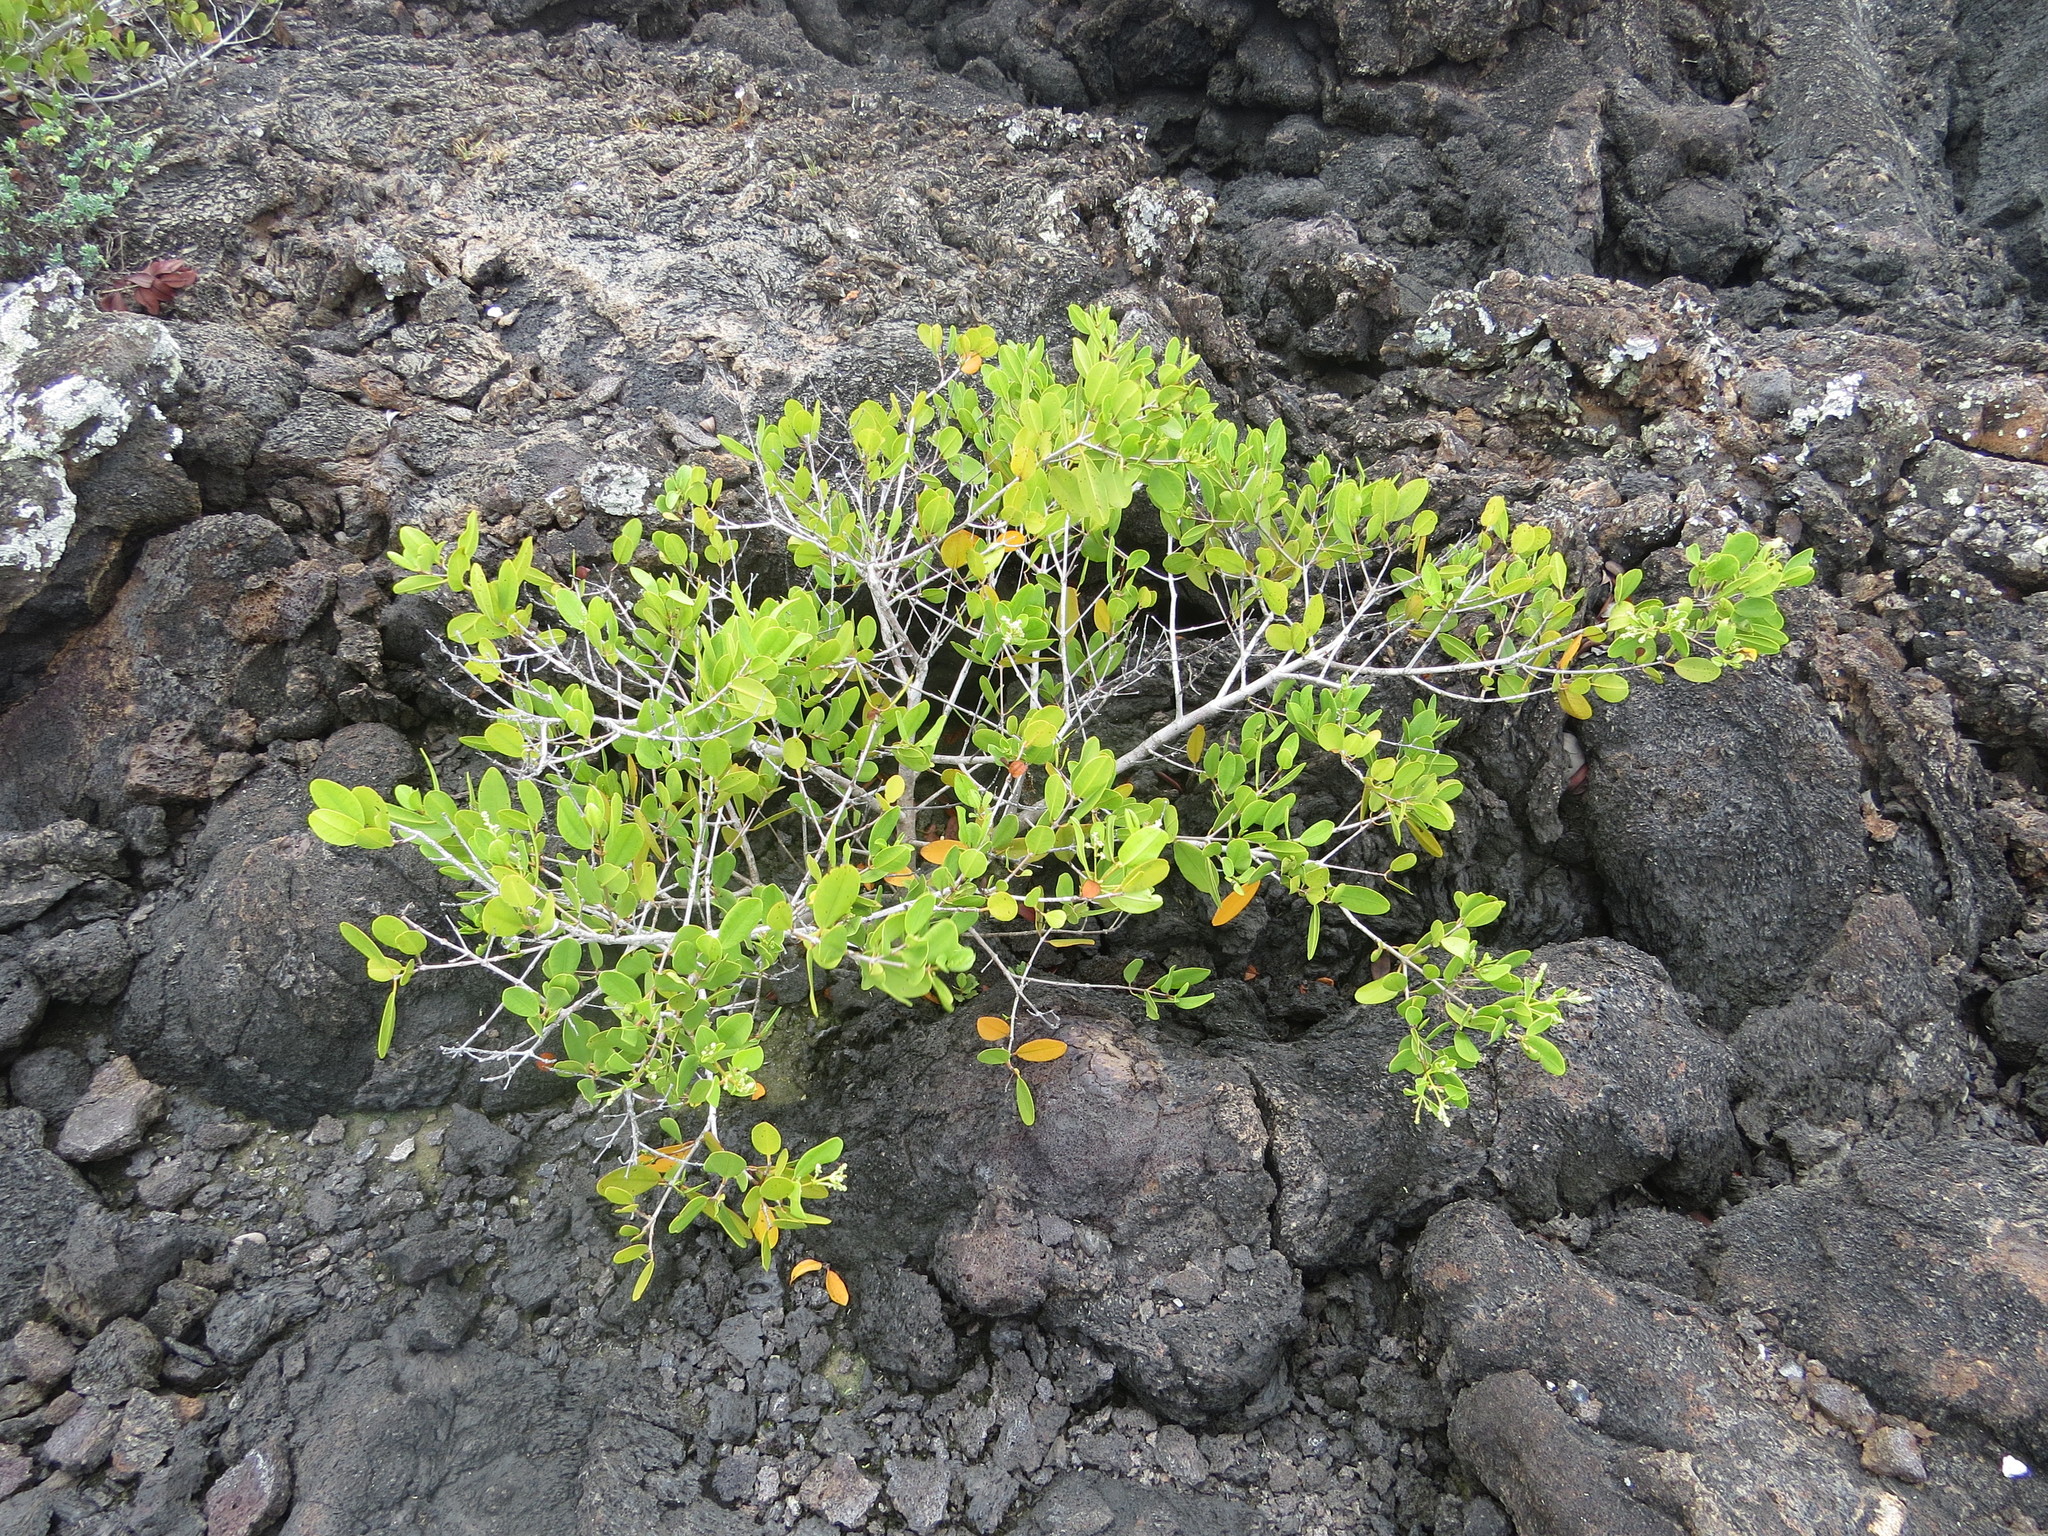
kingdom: Plantae
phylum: Tracheophyta
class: Magnoliopsida
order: Myrtales
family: Combretaceae
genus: Laguncularia
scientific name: Laguncularia racemosa
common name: White mangrove
